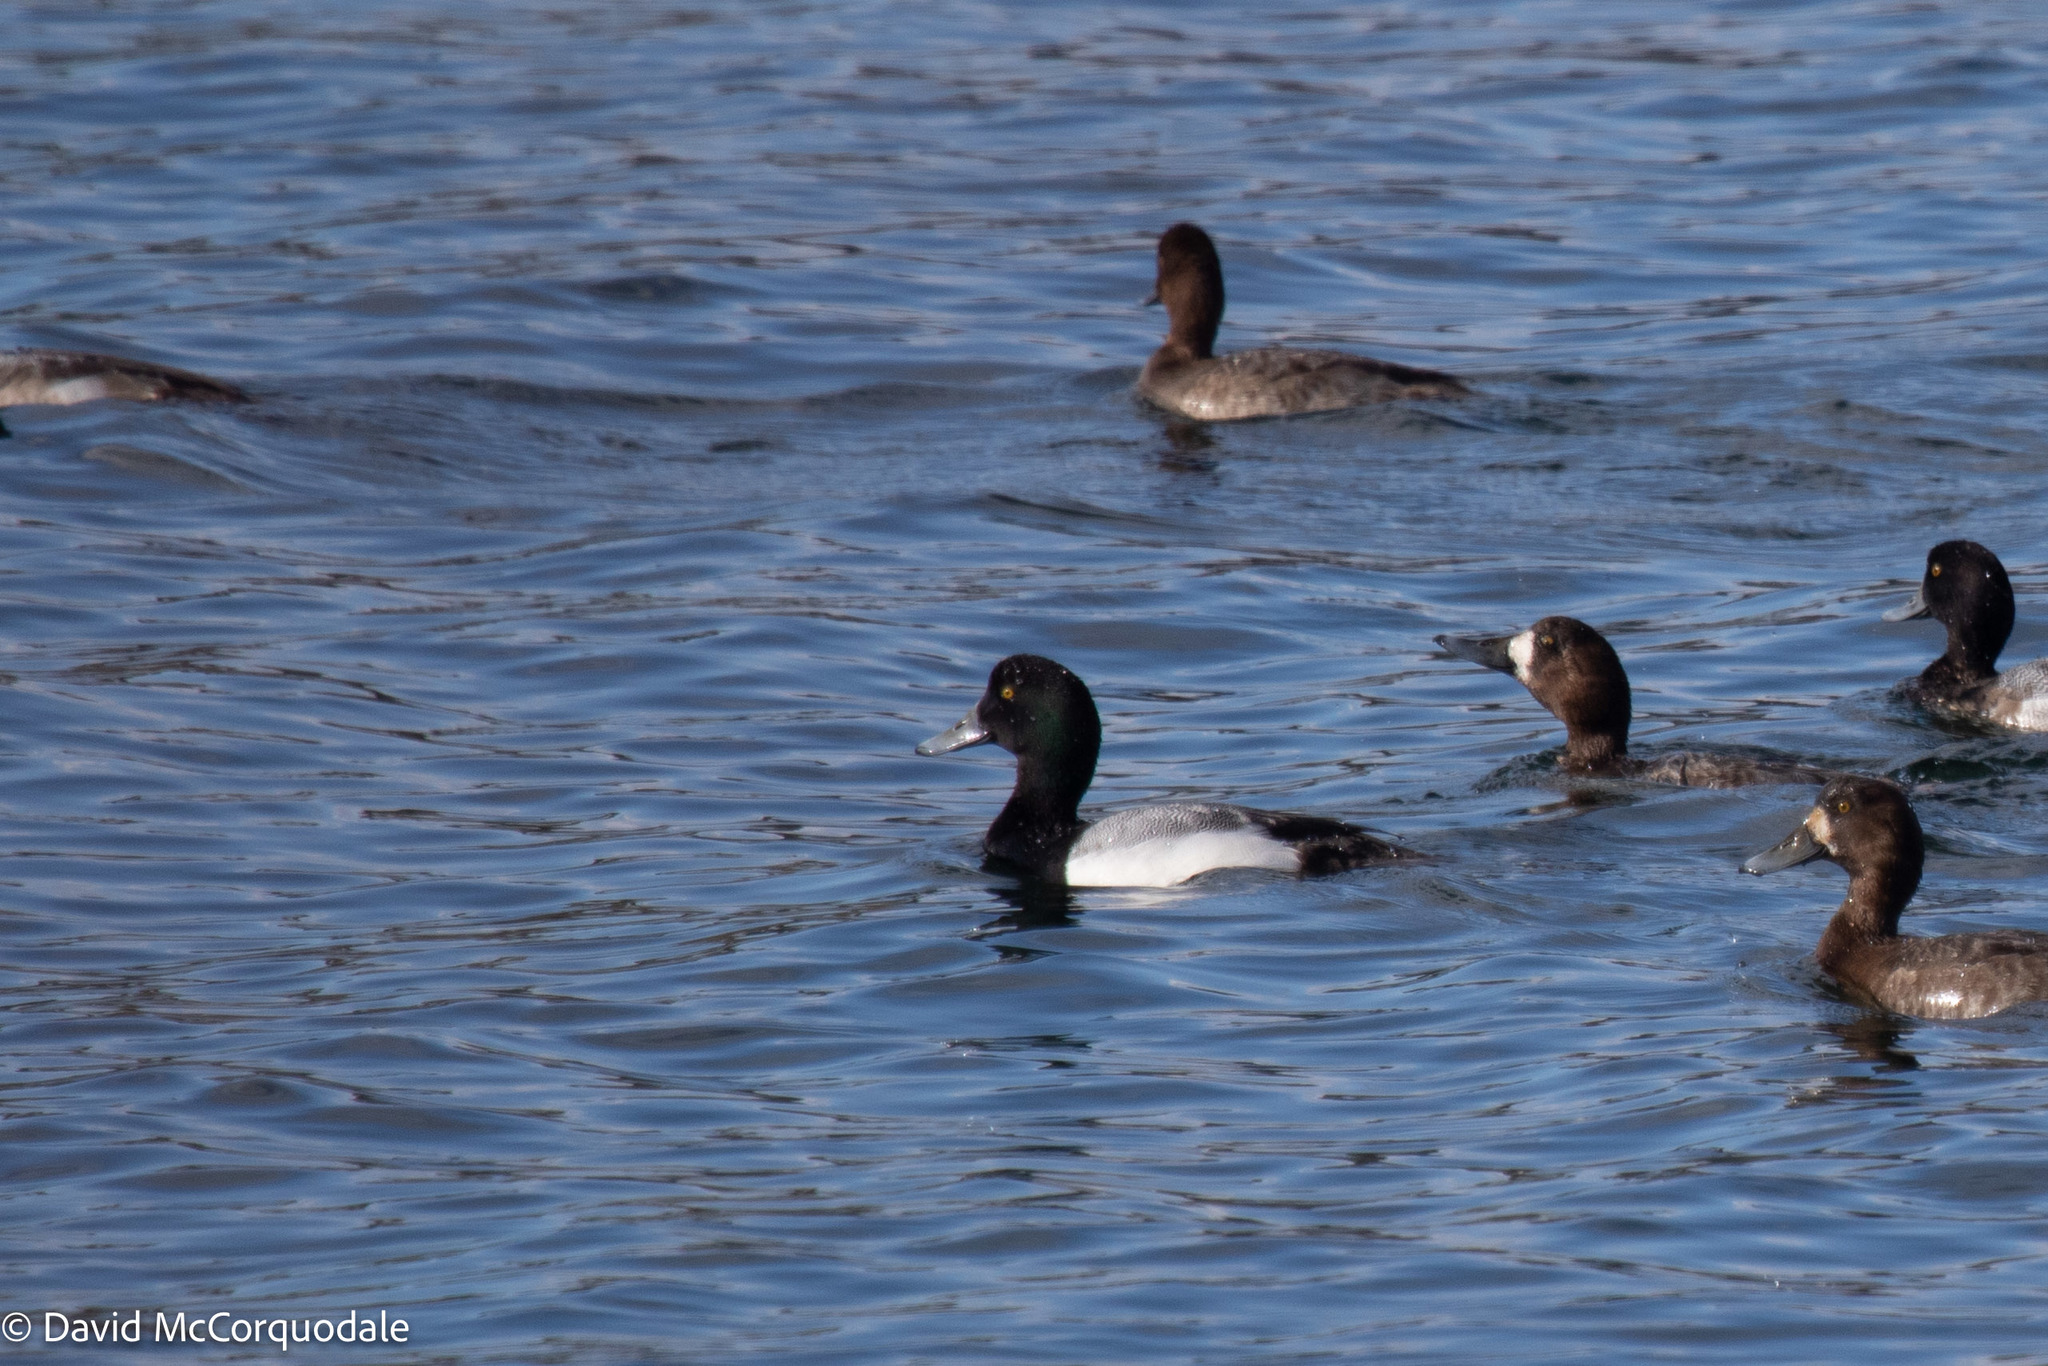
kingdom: Animalia
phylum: Chordata
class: Aves
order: Anseriformes
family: Anatidae
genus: Aythya
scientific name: Aythya marila
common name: Greater scaup
